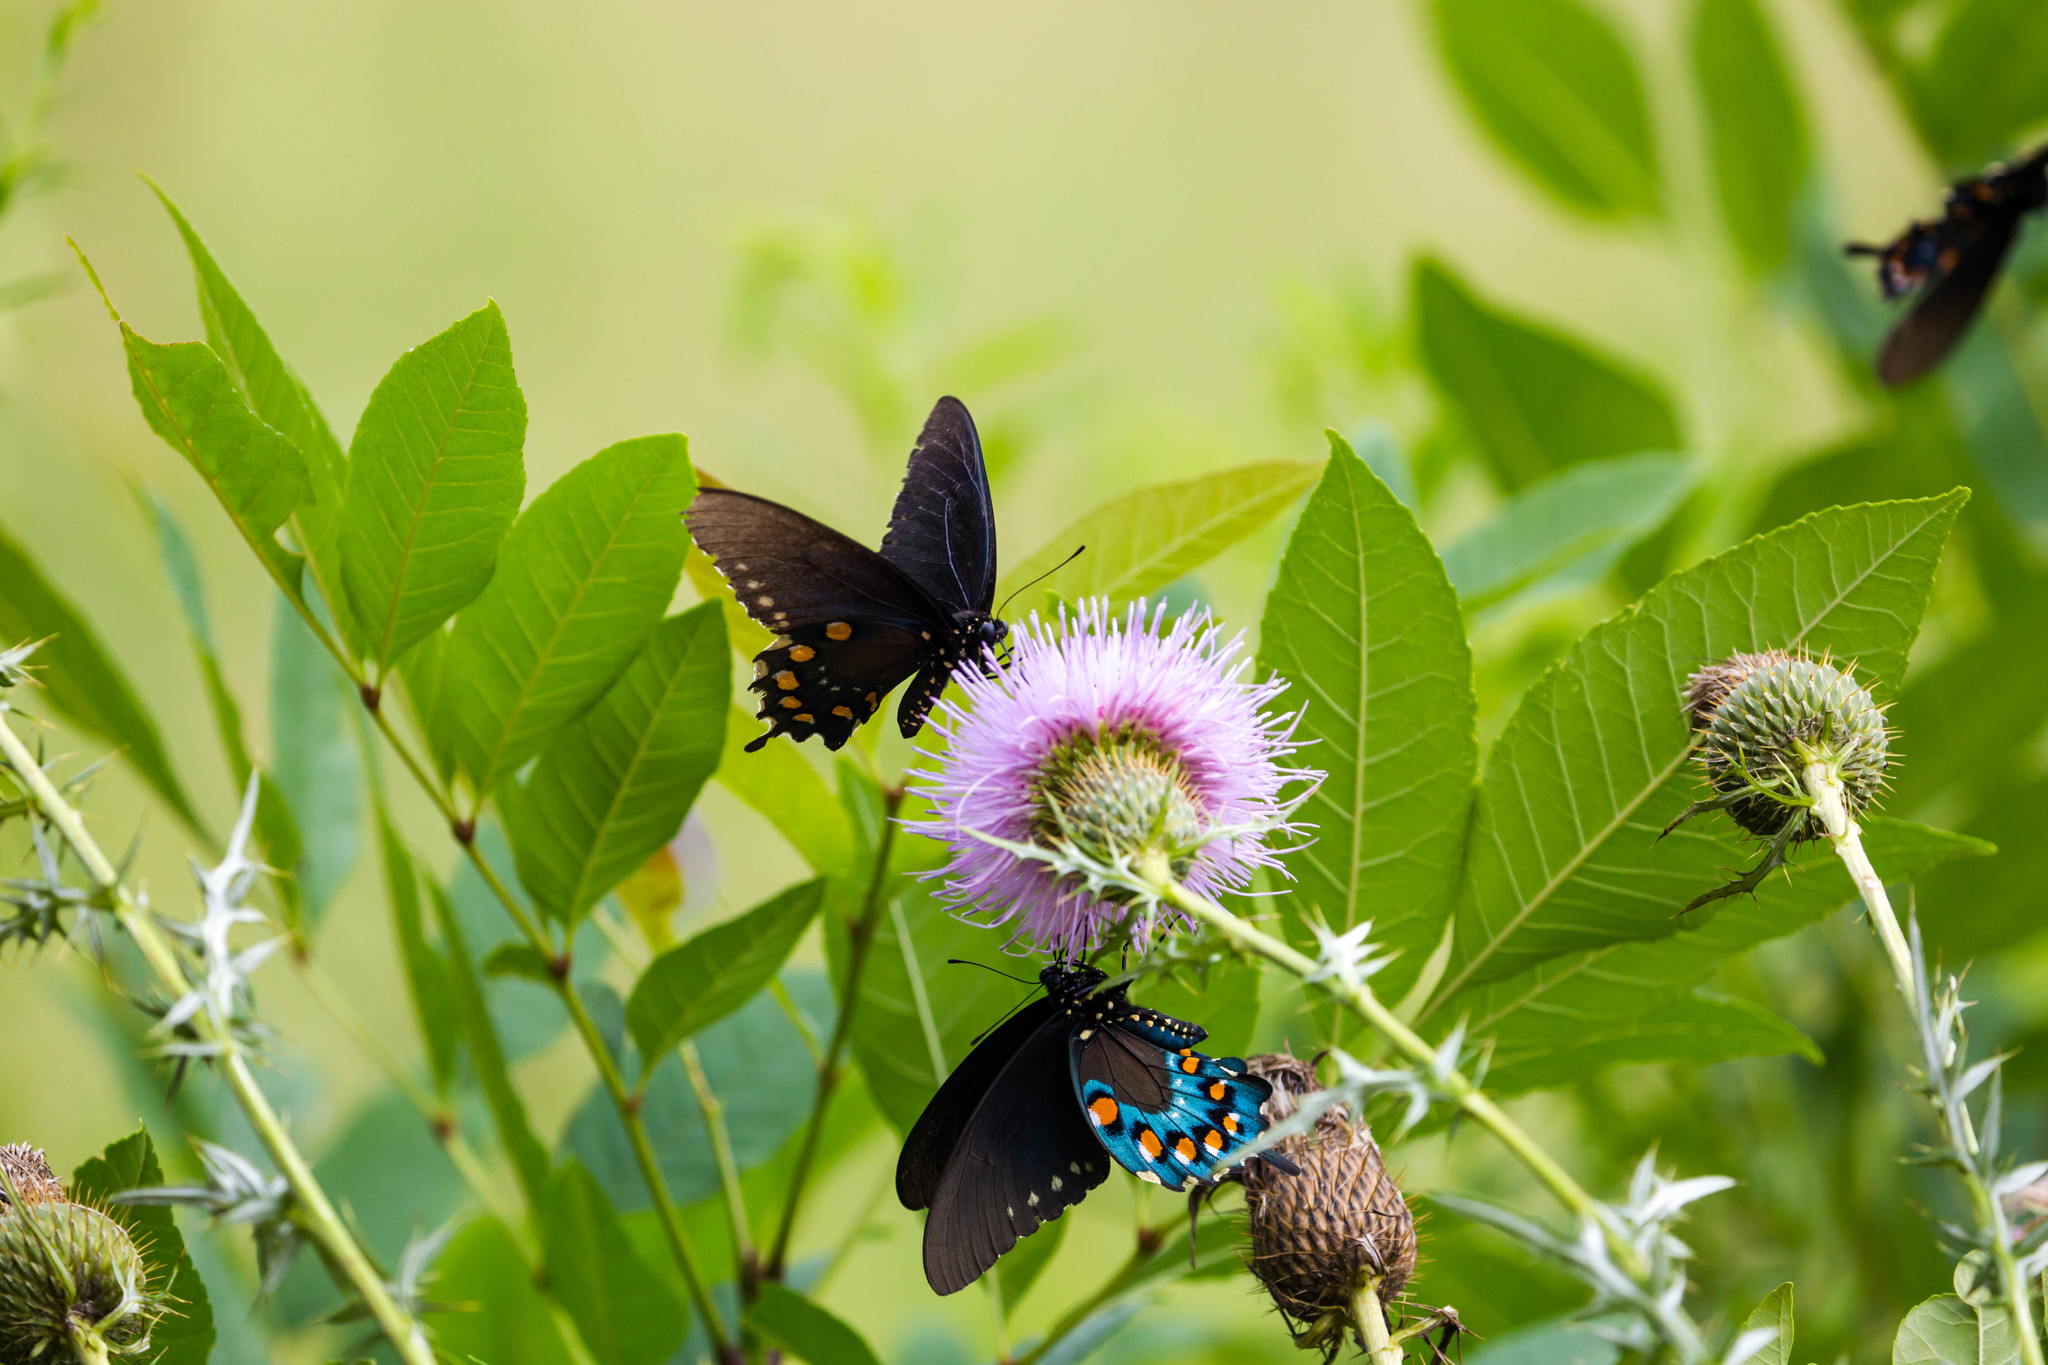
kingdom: Animalia
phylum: Arthropoda
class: Insecta
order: Lepidoptera
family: Papilionidae
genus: Battus
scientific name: Battus philenor
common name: Pipevine swallowtail
